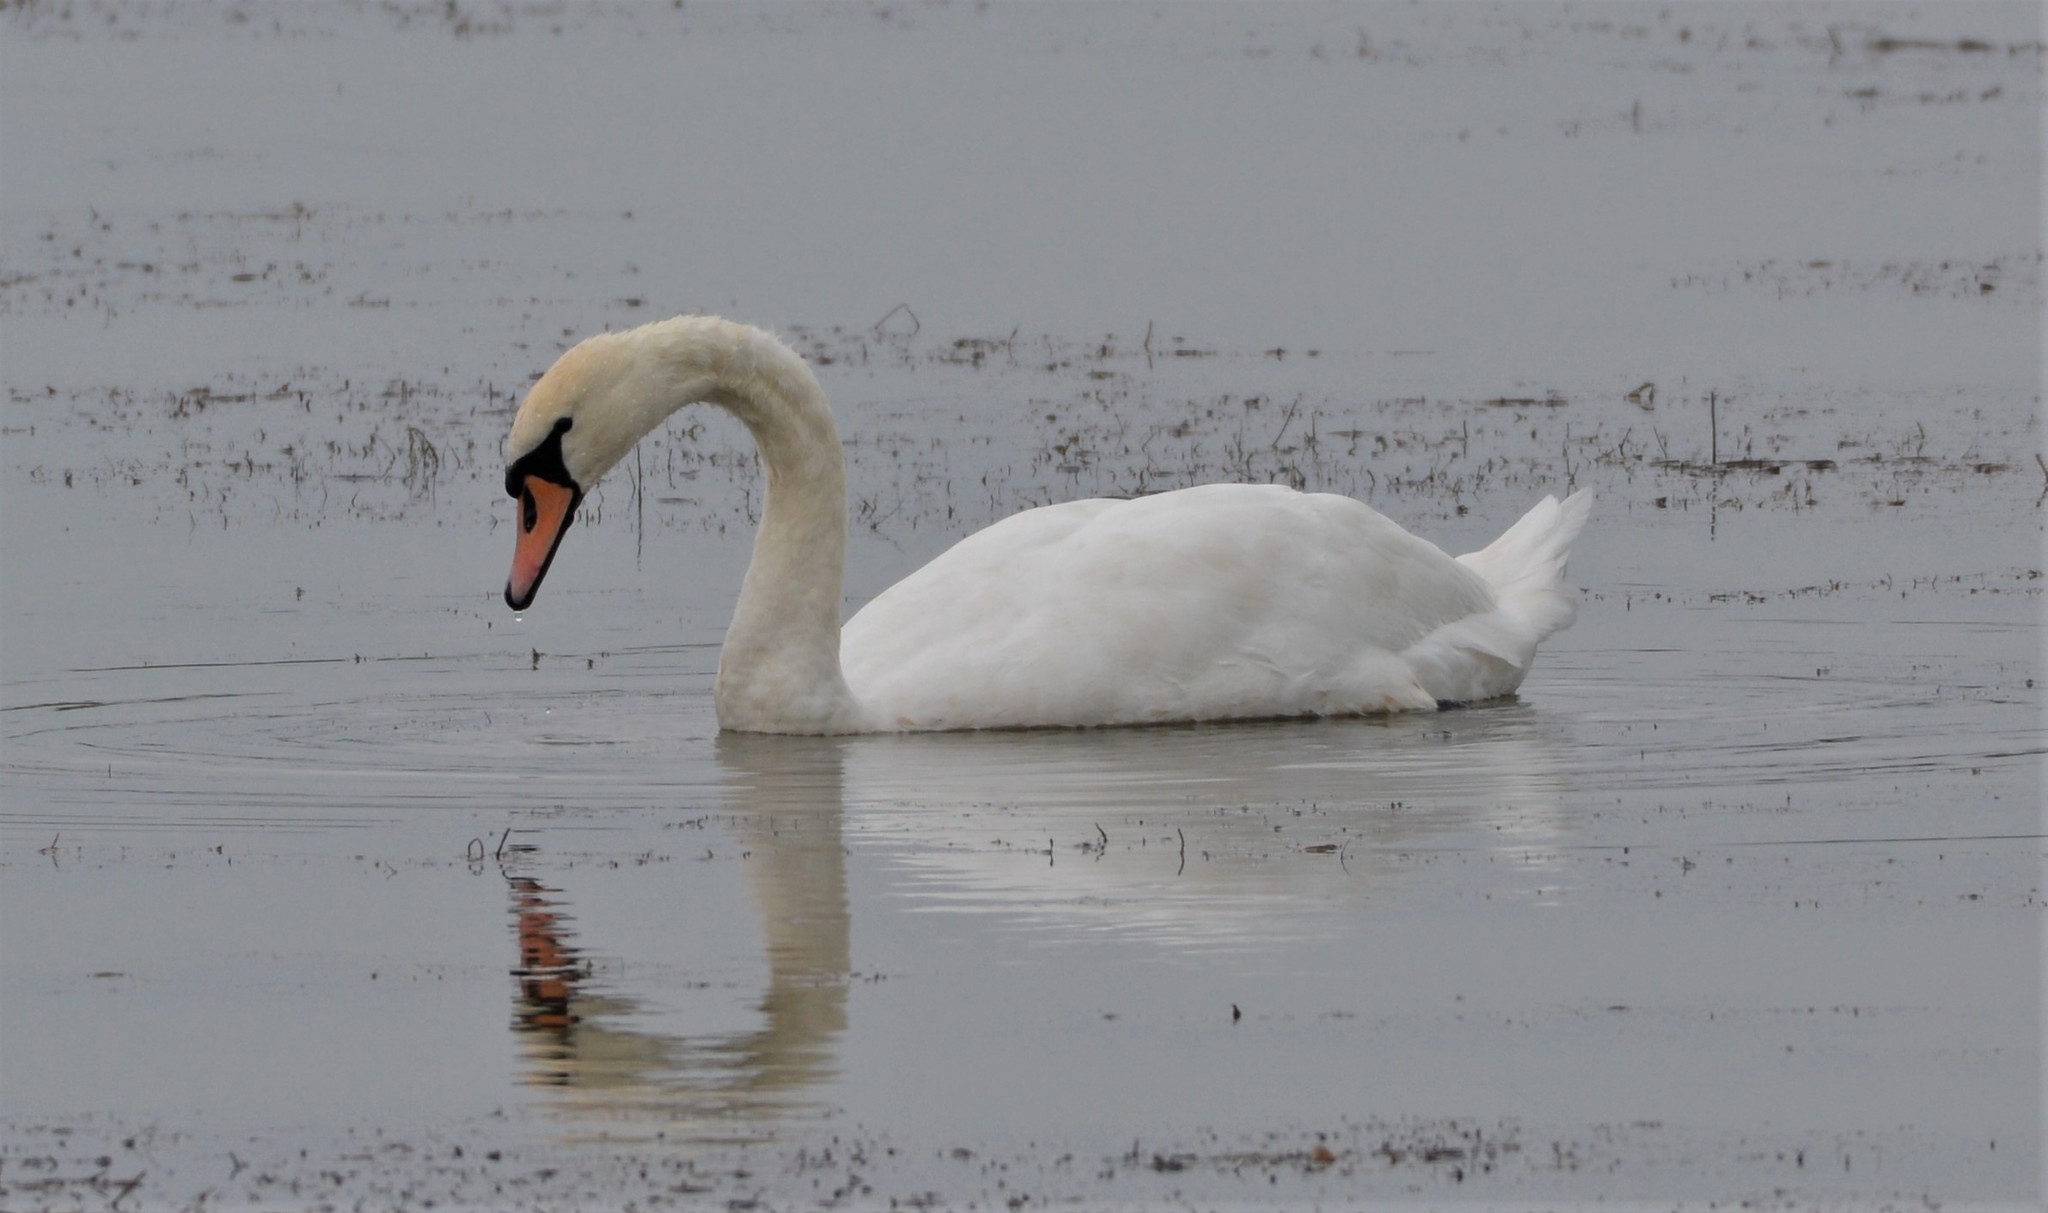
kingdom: Animalia
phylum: Chordata
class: Aves
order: Anseriformes
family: Anatidae
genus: Cygnus
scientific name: Cygnus olor
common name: Mute swan
